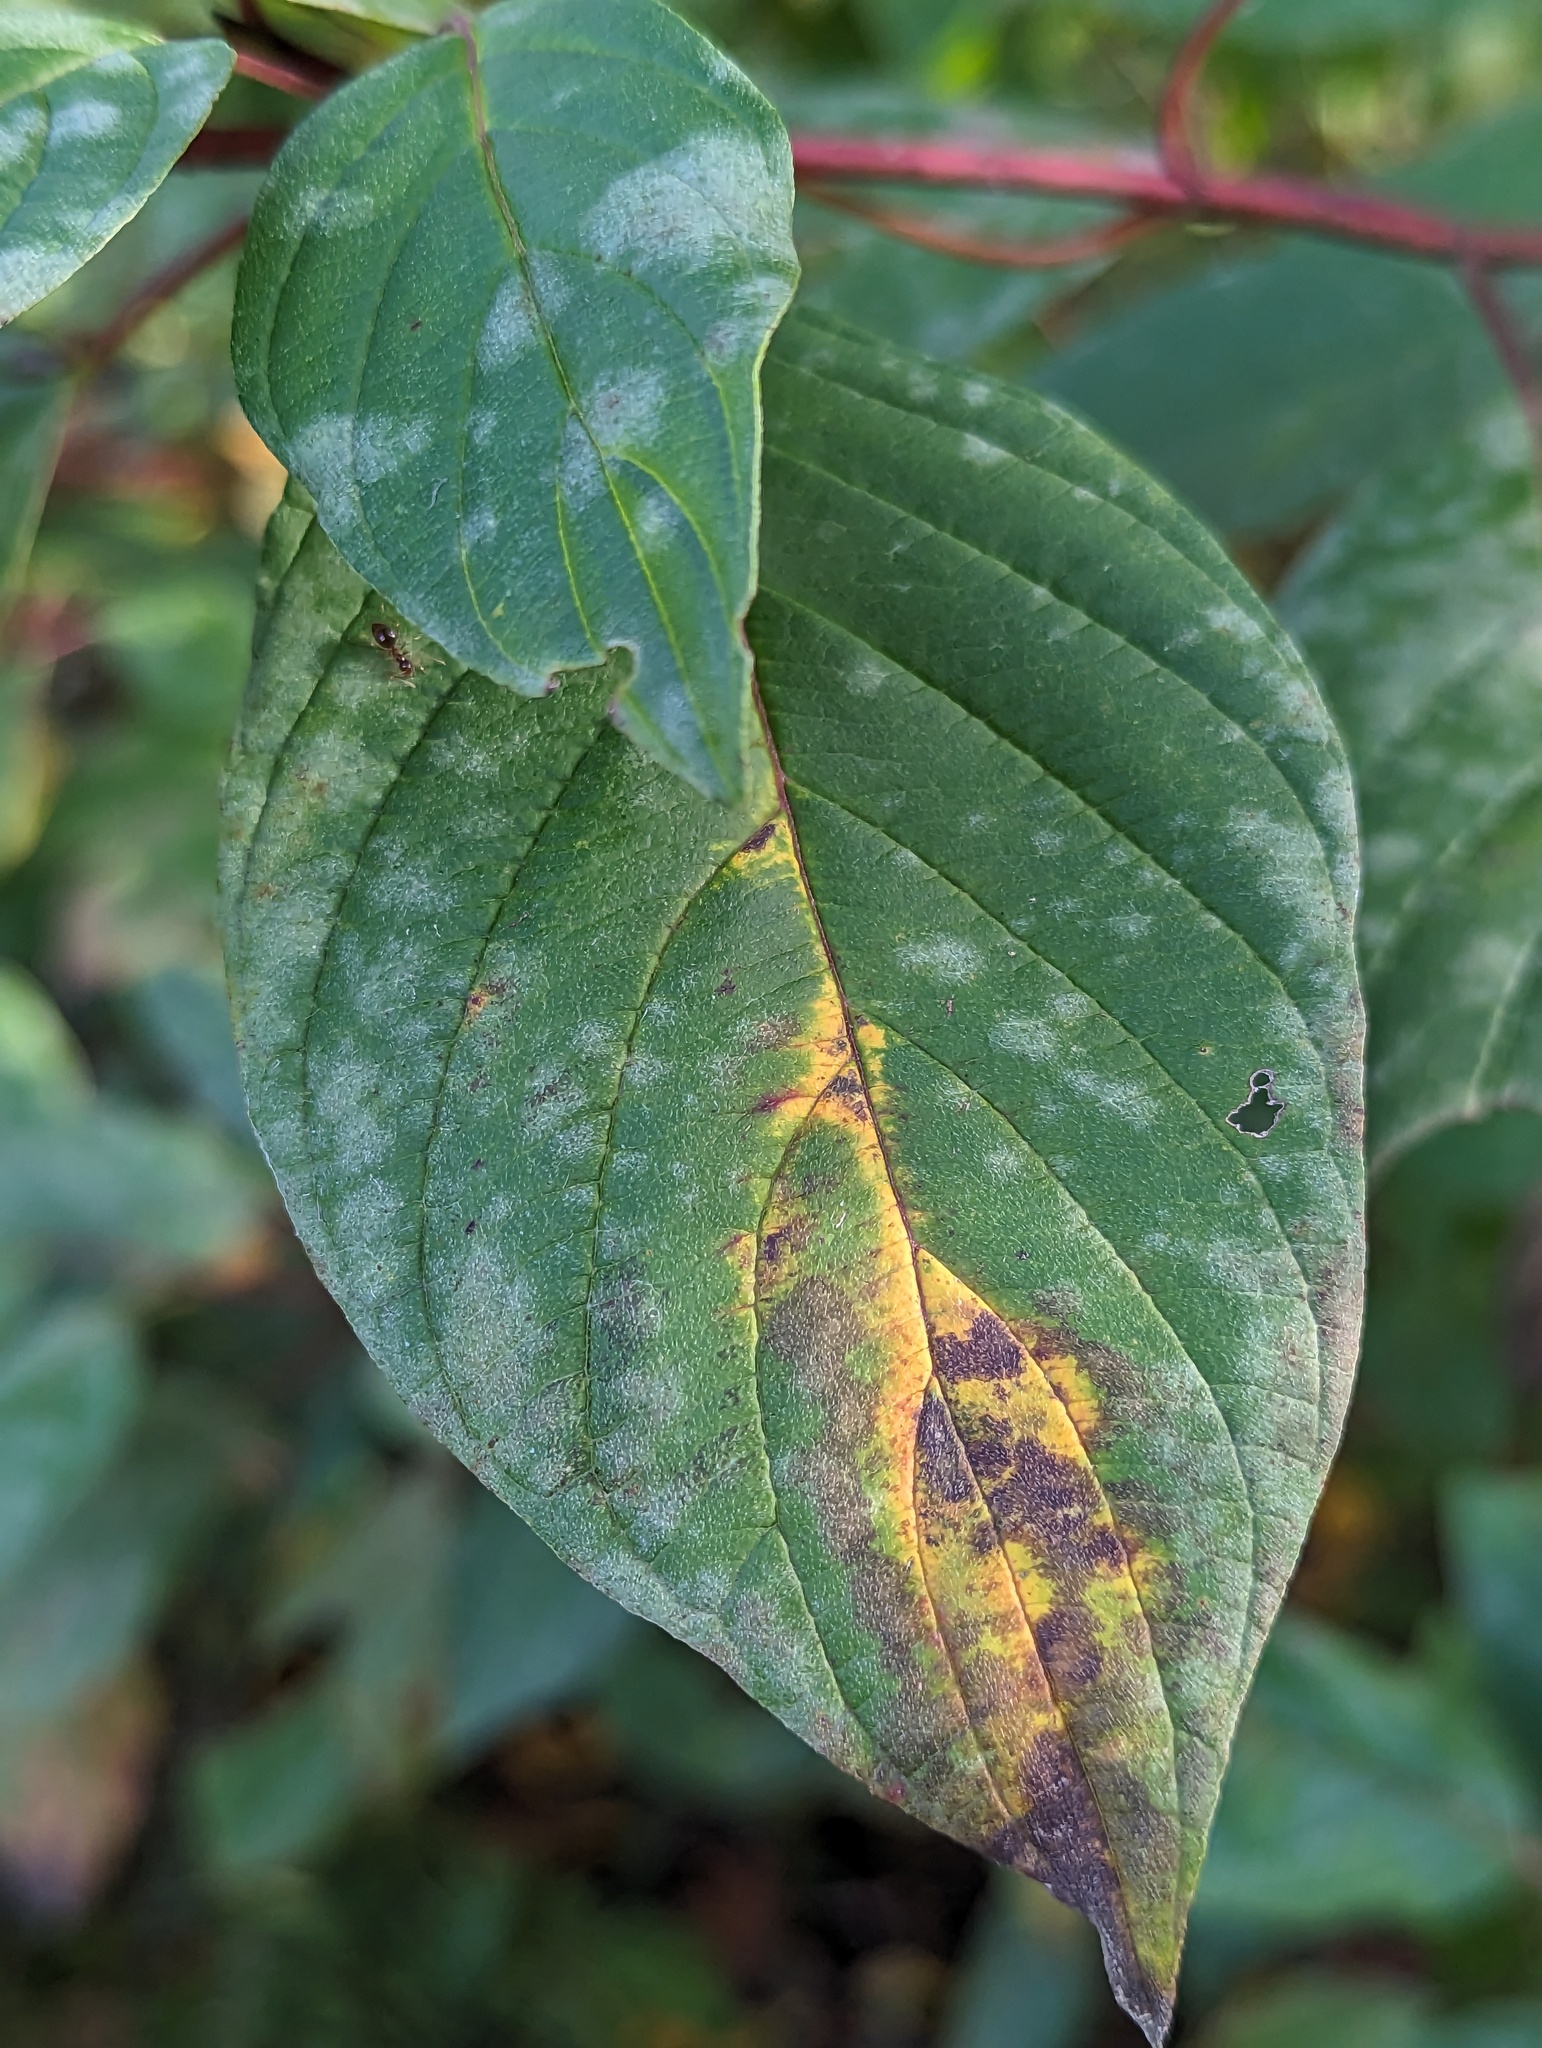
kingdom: Fungi
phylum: Ascomycota
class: Leotiomycetes
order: Helotiales
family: Erysiphaceae
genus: Erysiphe
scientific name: Erysiphe tortilis
